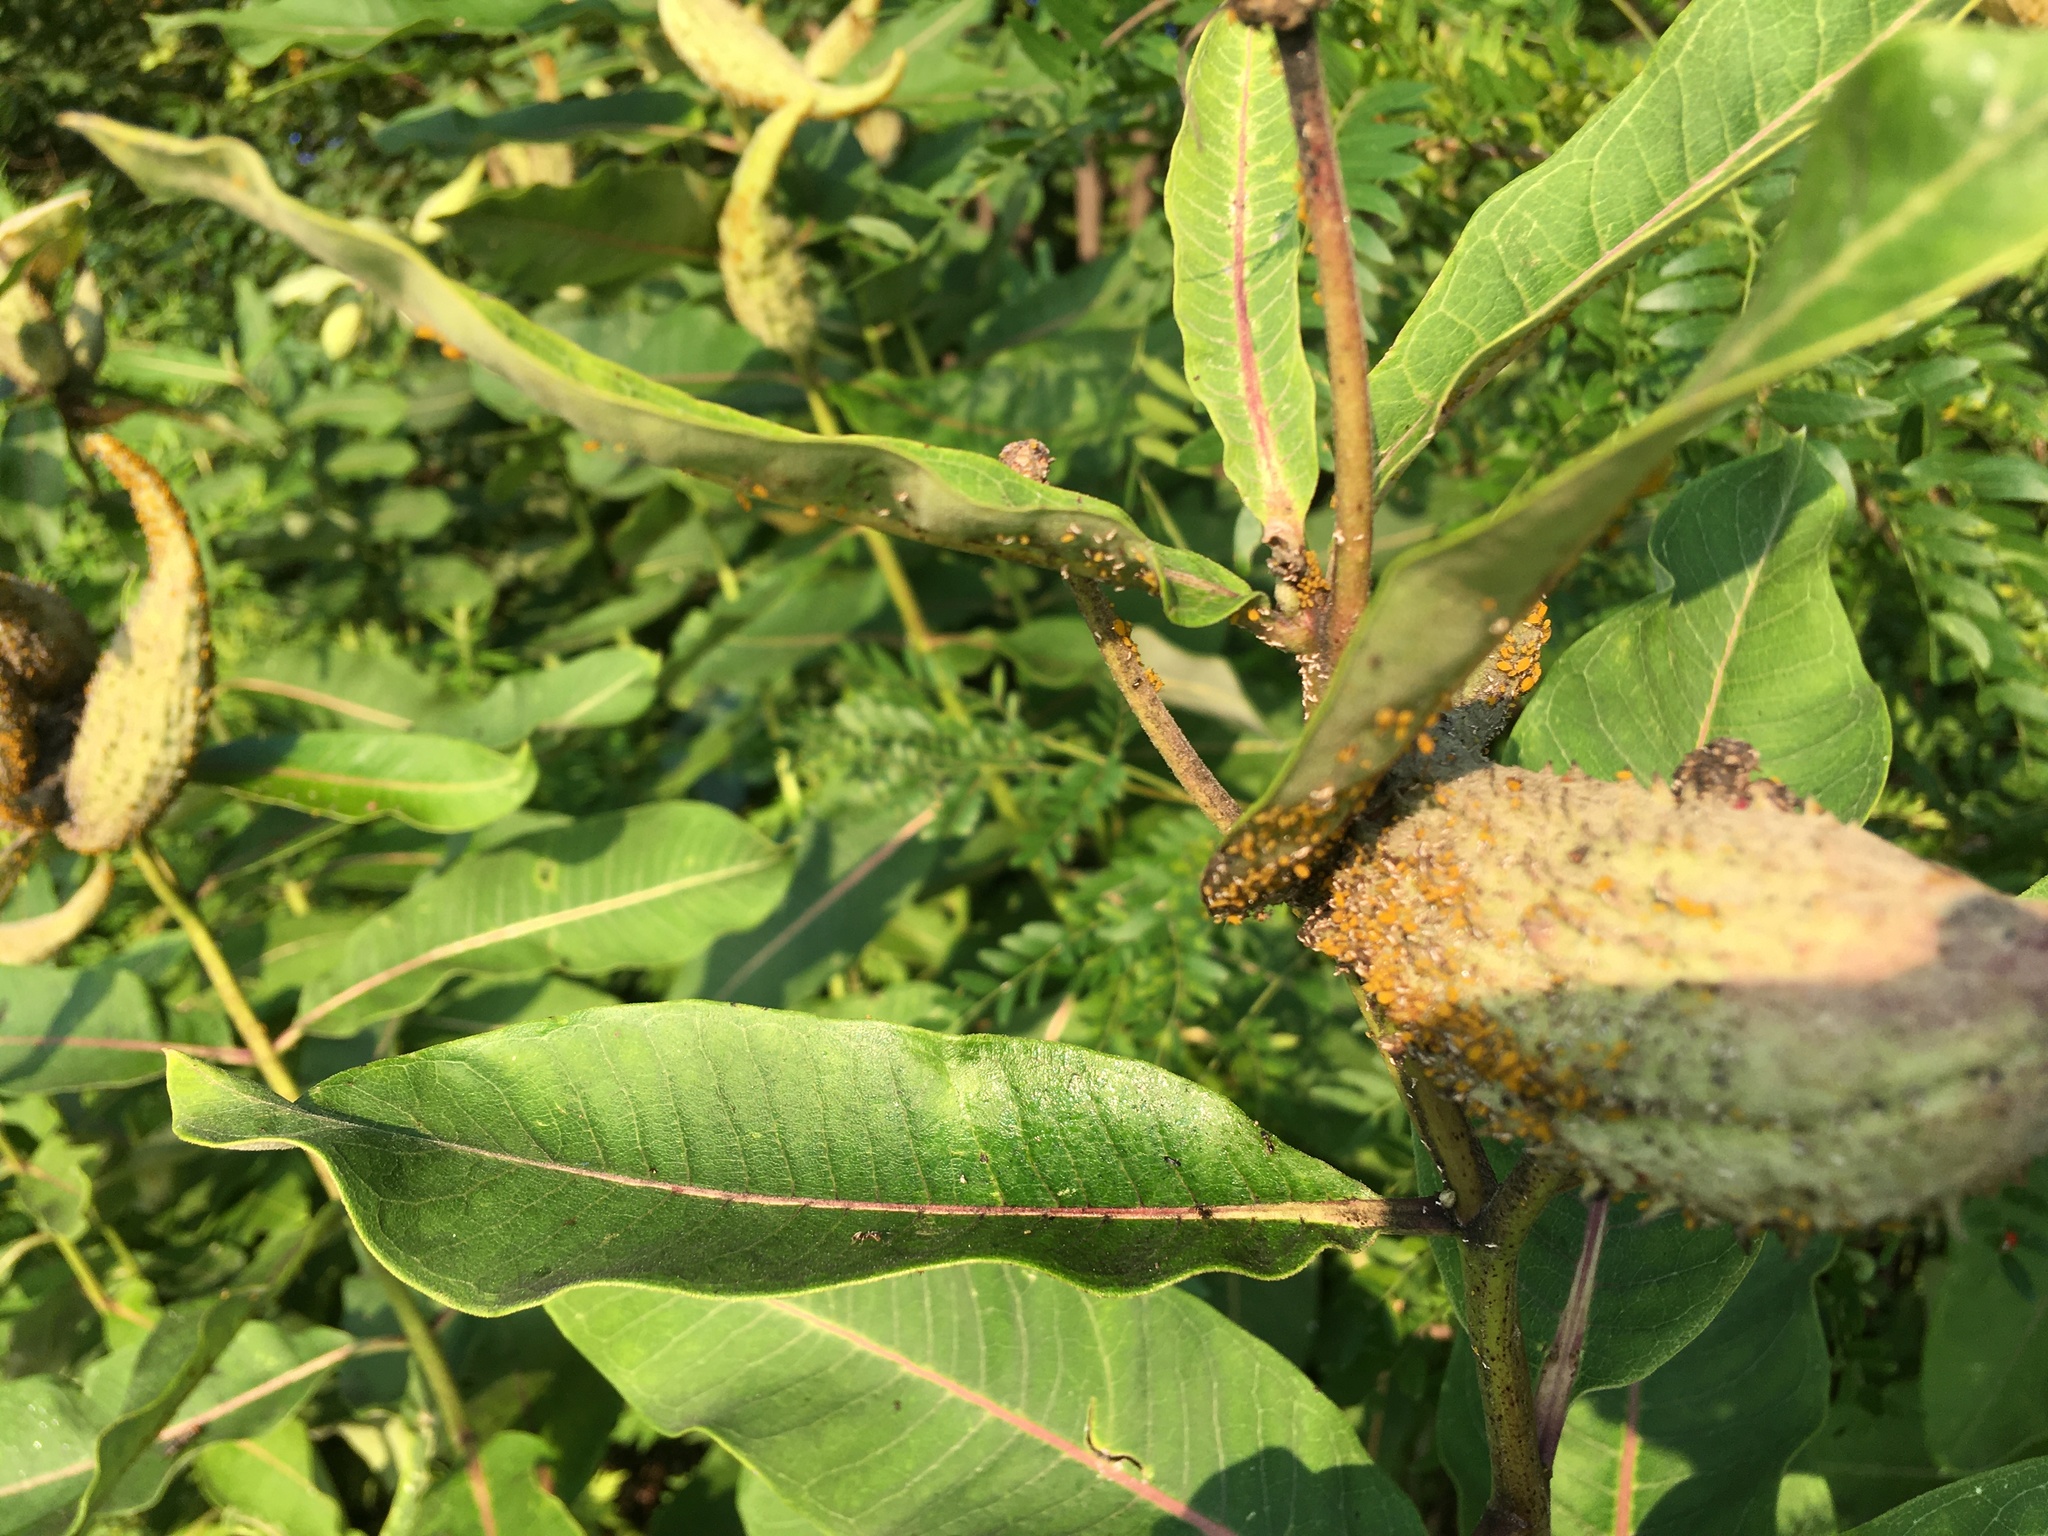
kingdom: Plantae
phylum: Tracheophyta
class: Magnoliopsida
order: Gentianales
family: Apocynaceae
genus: Asclepias
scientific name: Asclepias syriaca
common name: Common milkweed
